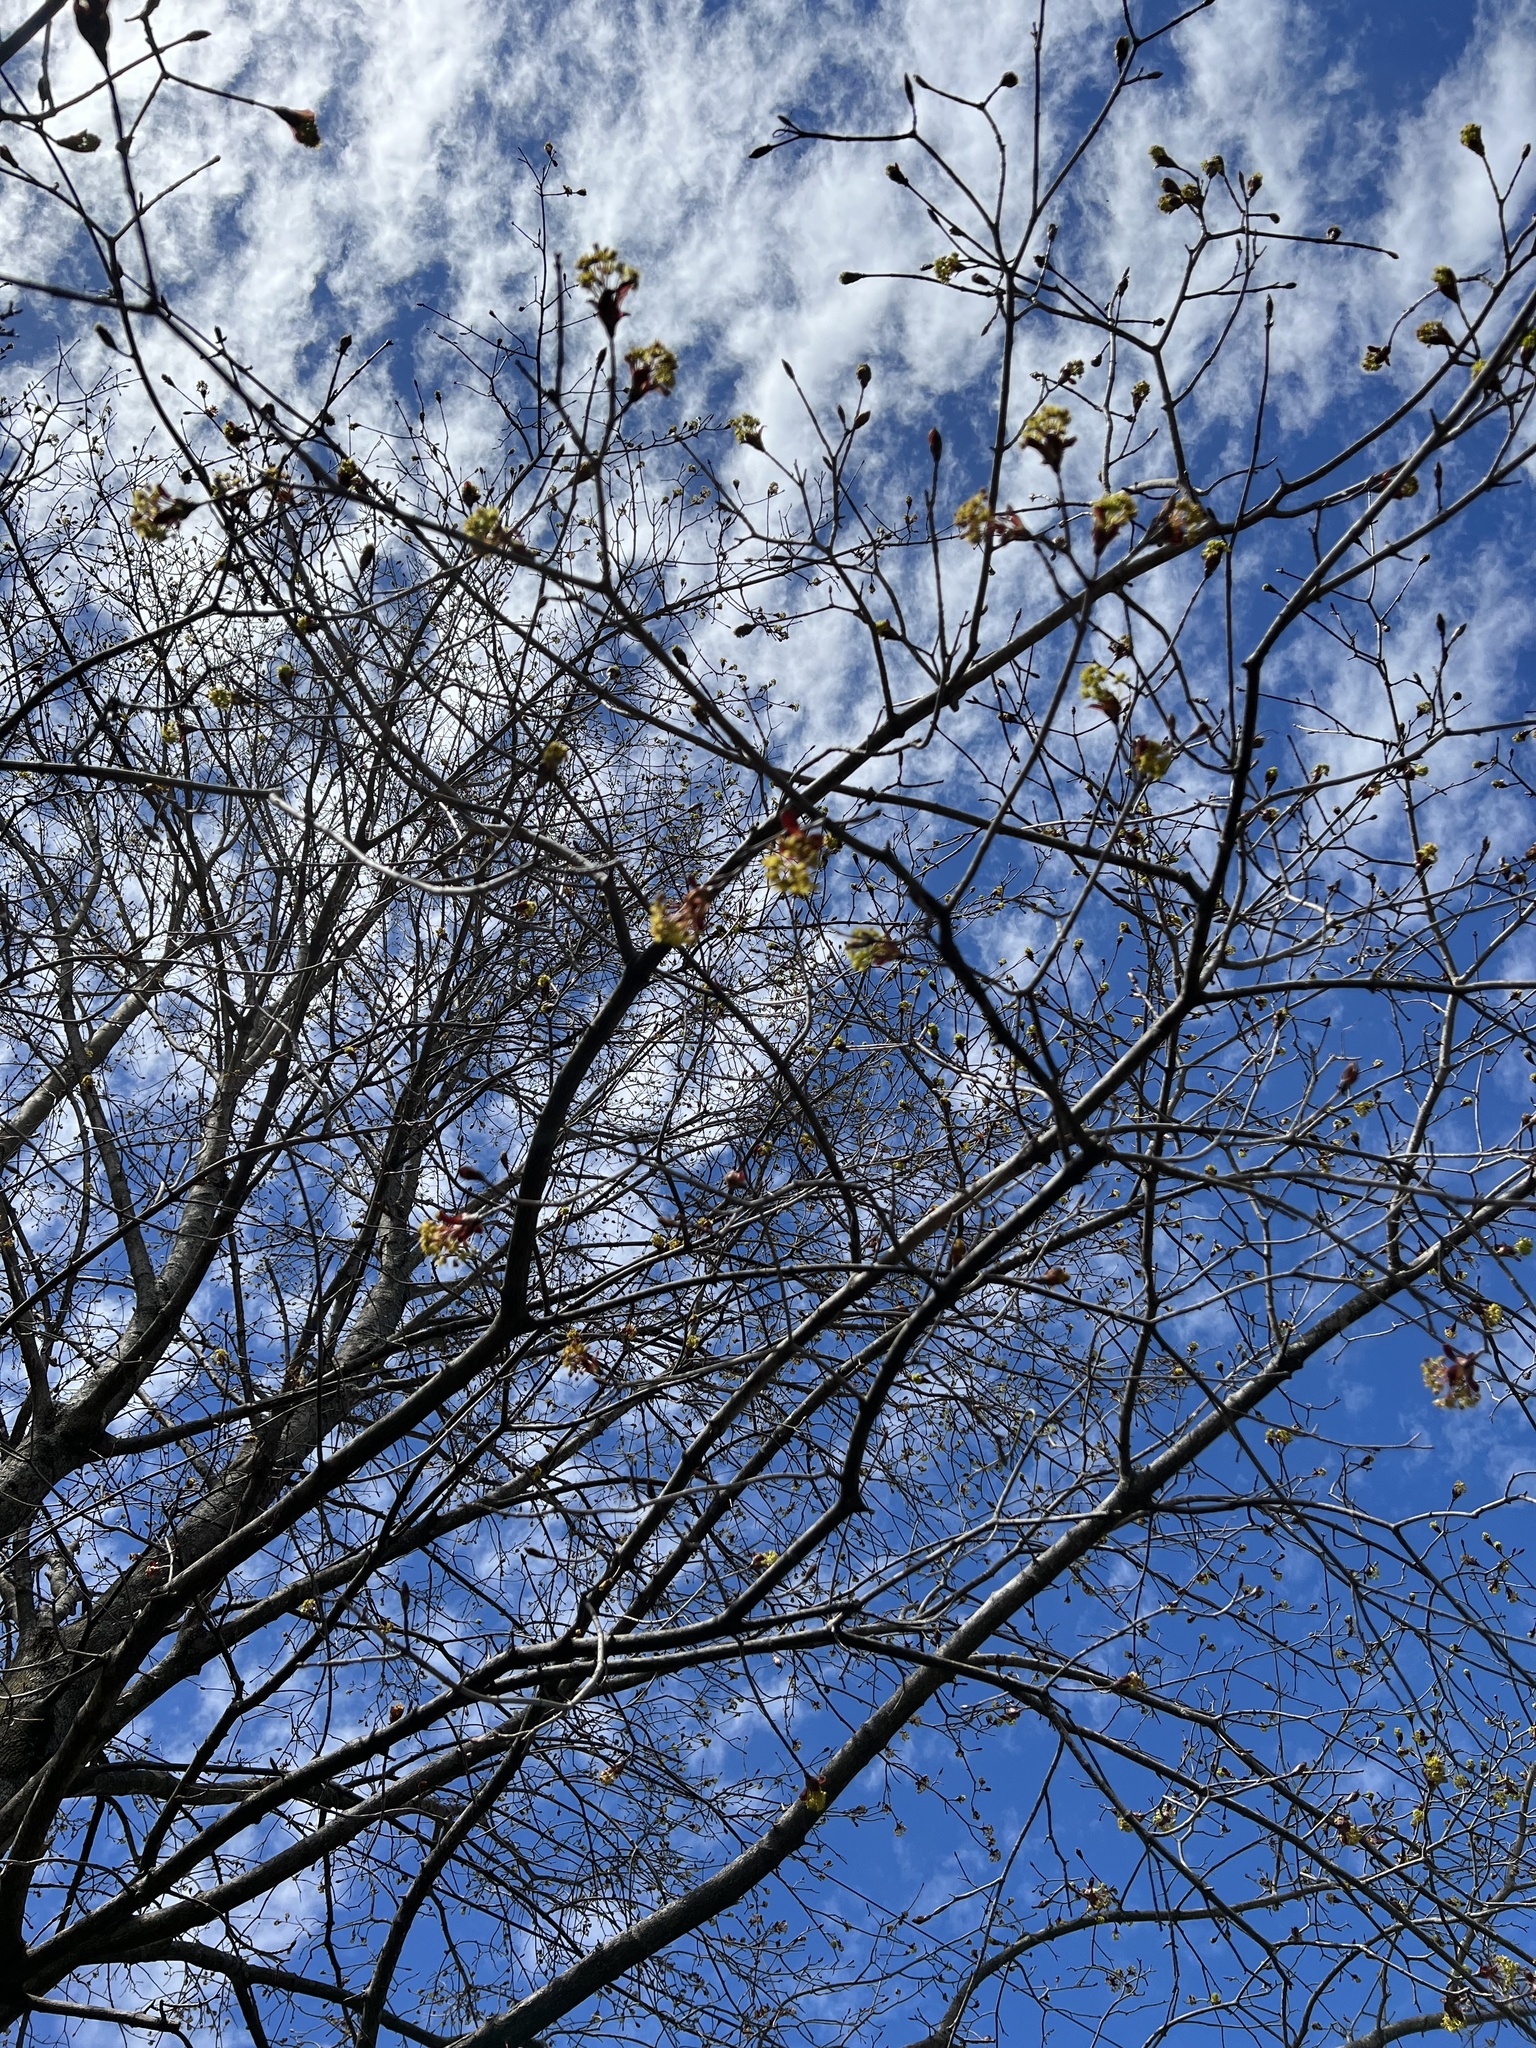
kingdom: Plantae
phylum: Tracheophyta
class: Magnoliopsida
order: Sapindales
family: Sapindaceae
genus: Acer
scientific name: Acer platanoides
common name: Norway maple
